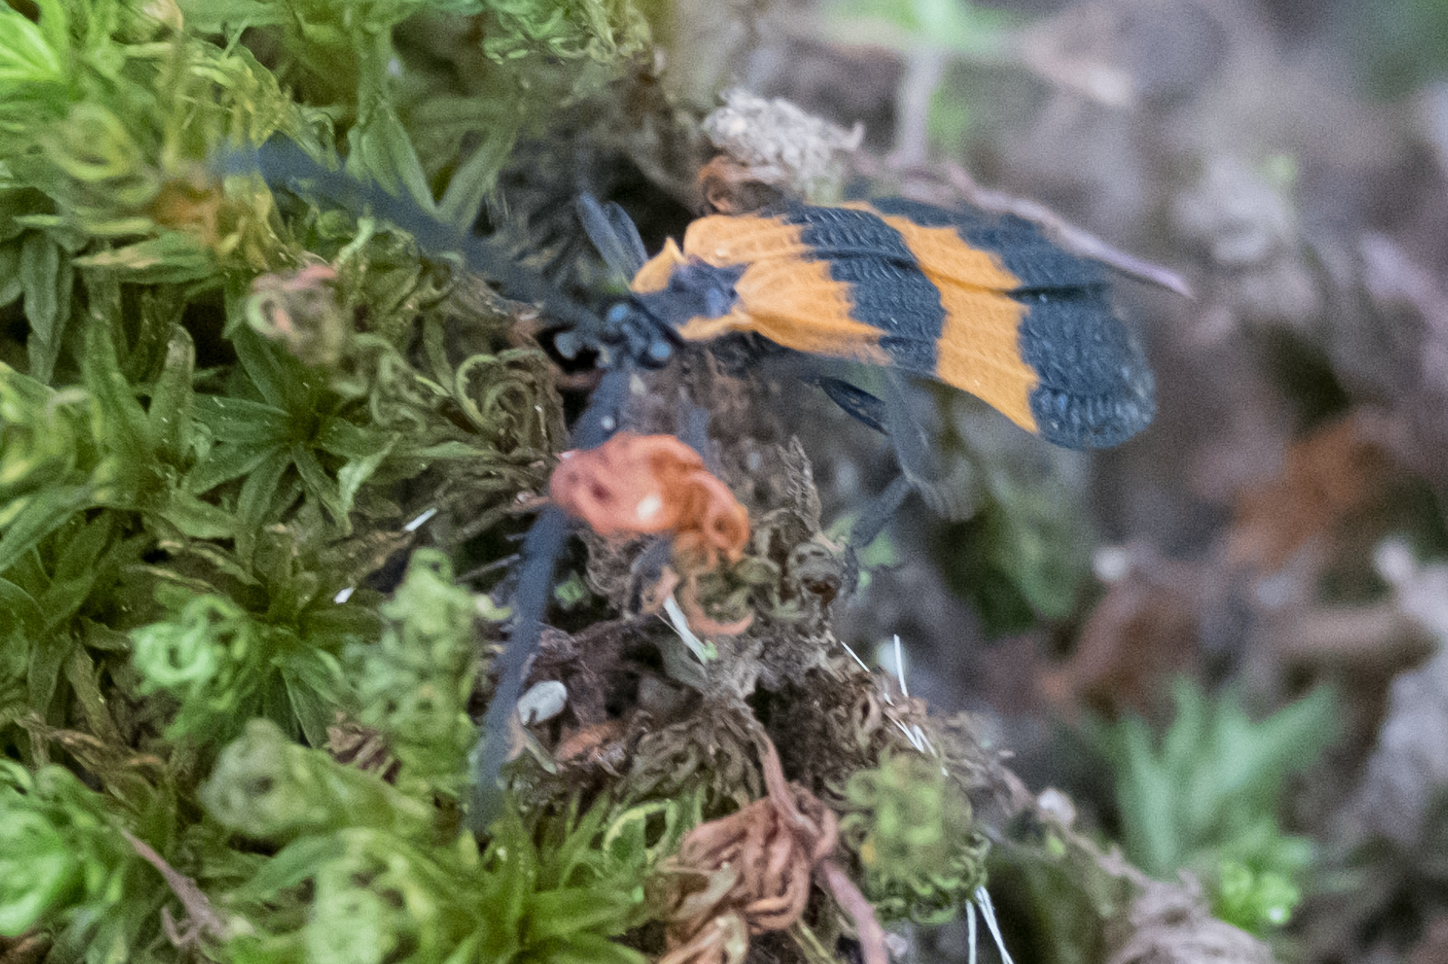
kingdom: Animalia
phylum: Arthropoda
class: Insecta
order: Coleoptera
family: Lycidae
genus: Calopteron
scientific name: Calopteron terminale
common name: End band net-winged beetle
